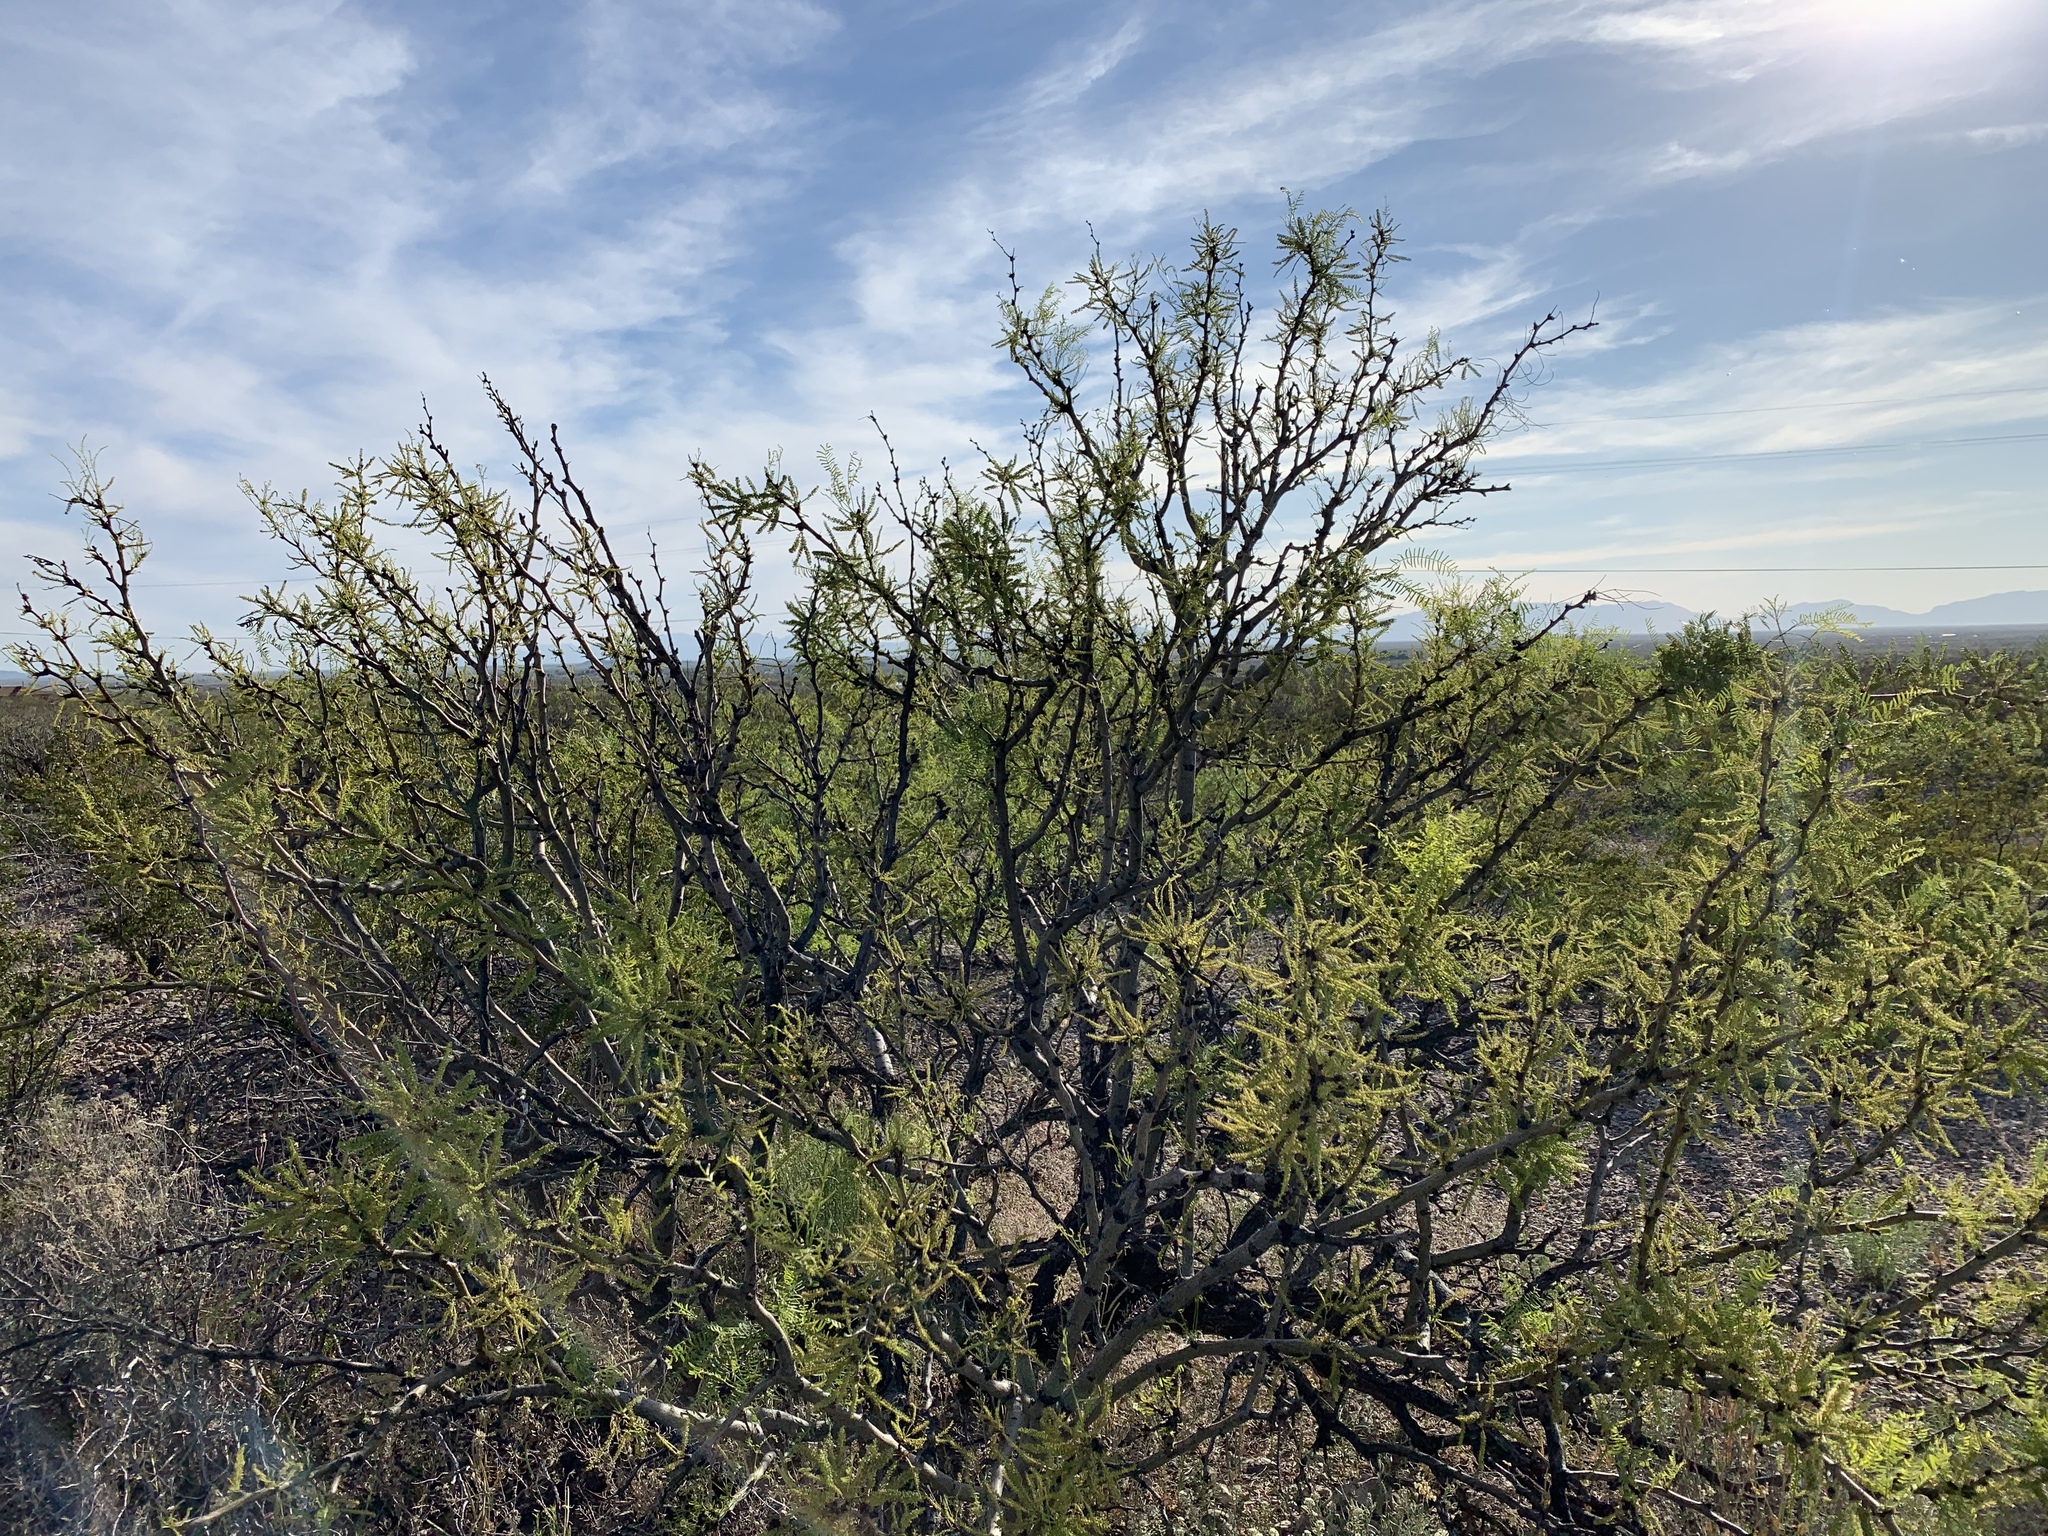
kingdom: Plantae
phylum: Tracheophyta
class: Magnoliopsida
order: Fabales
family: Fabaceae
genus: Prosopis
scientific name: Prosopis glandulosa
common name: Honey mesquite
